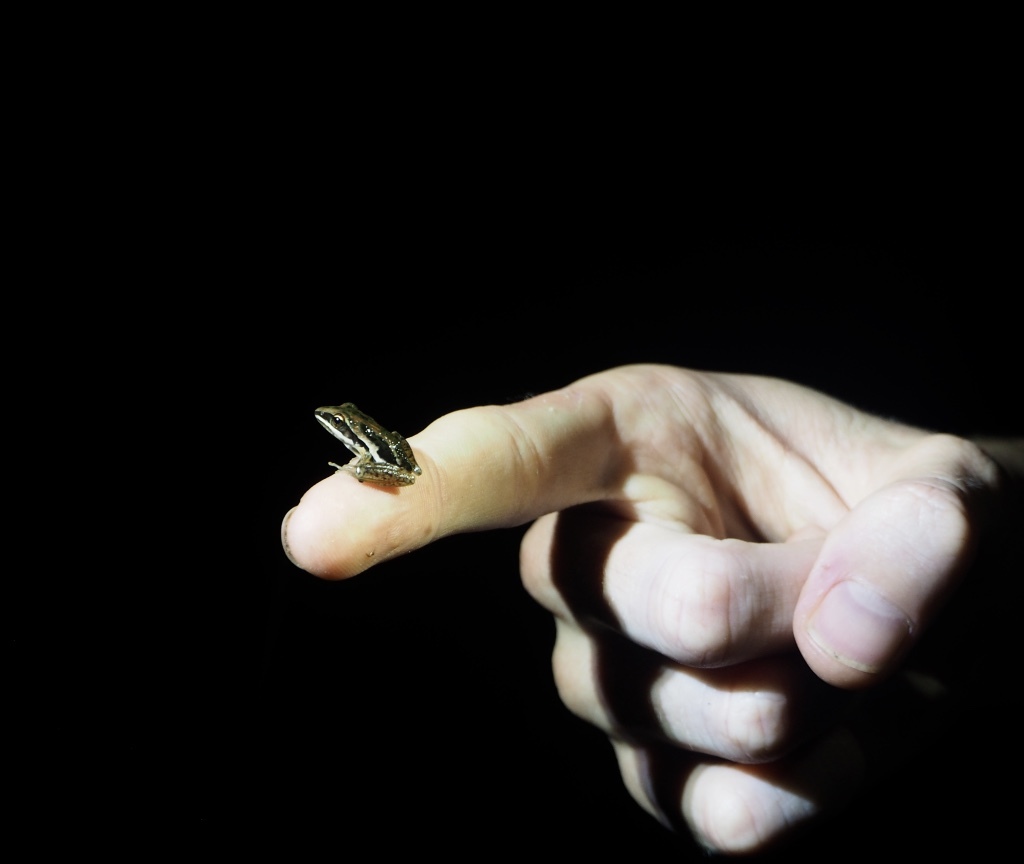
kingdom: Animalia
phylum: Chordata
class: Amphibia
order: Anura
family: Pelodryadidae
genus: Litoria
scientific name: Litoria nasuta
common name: Rocket frog
